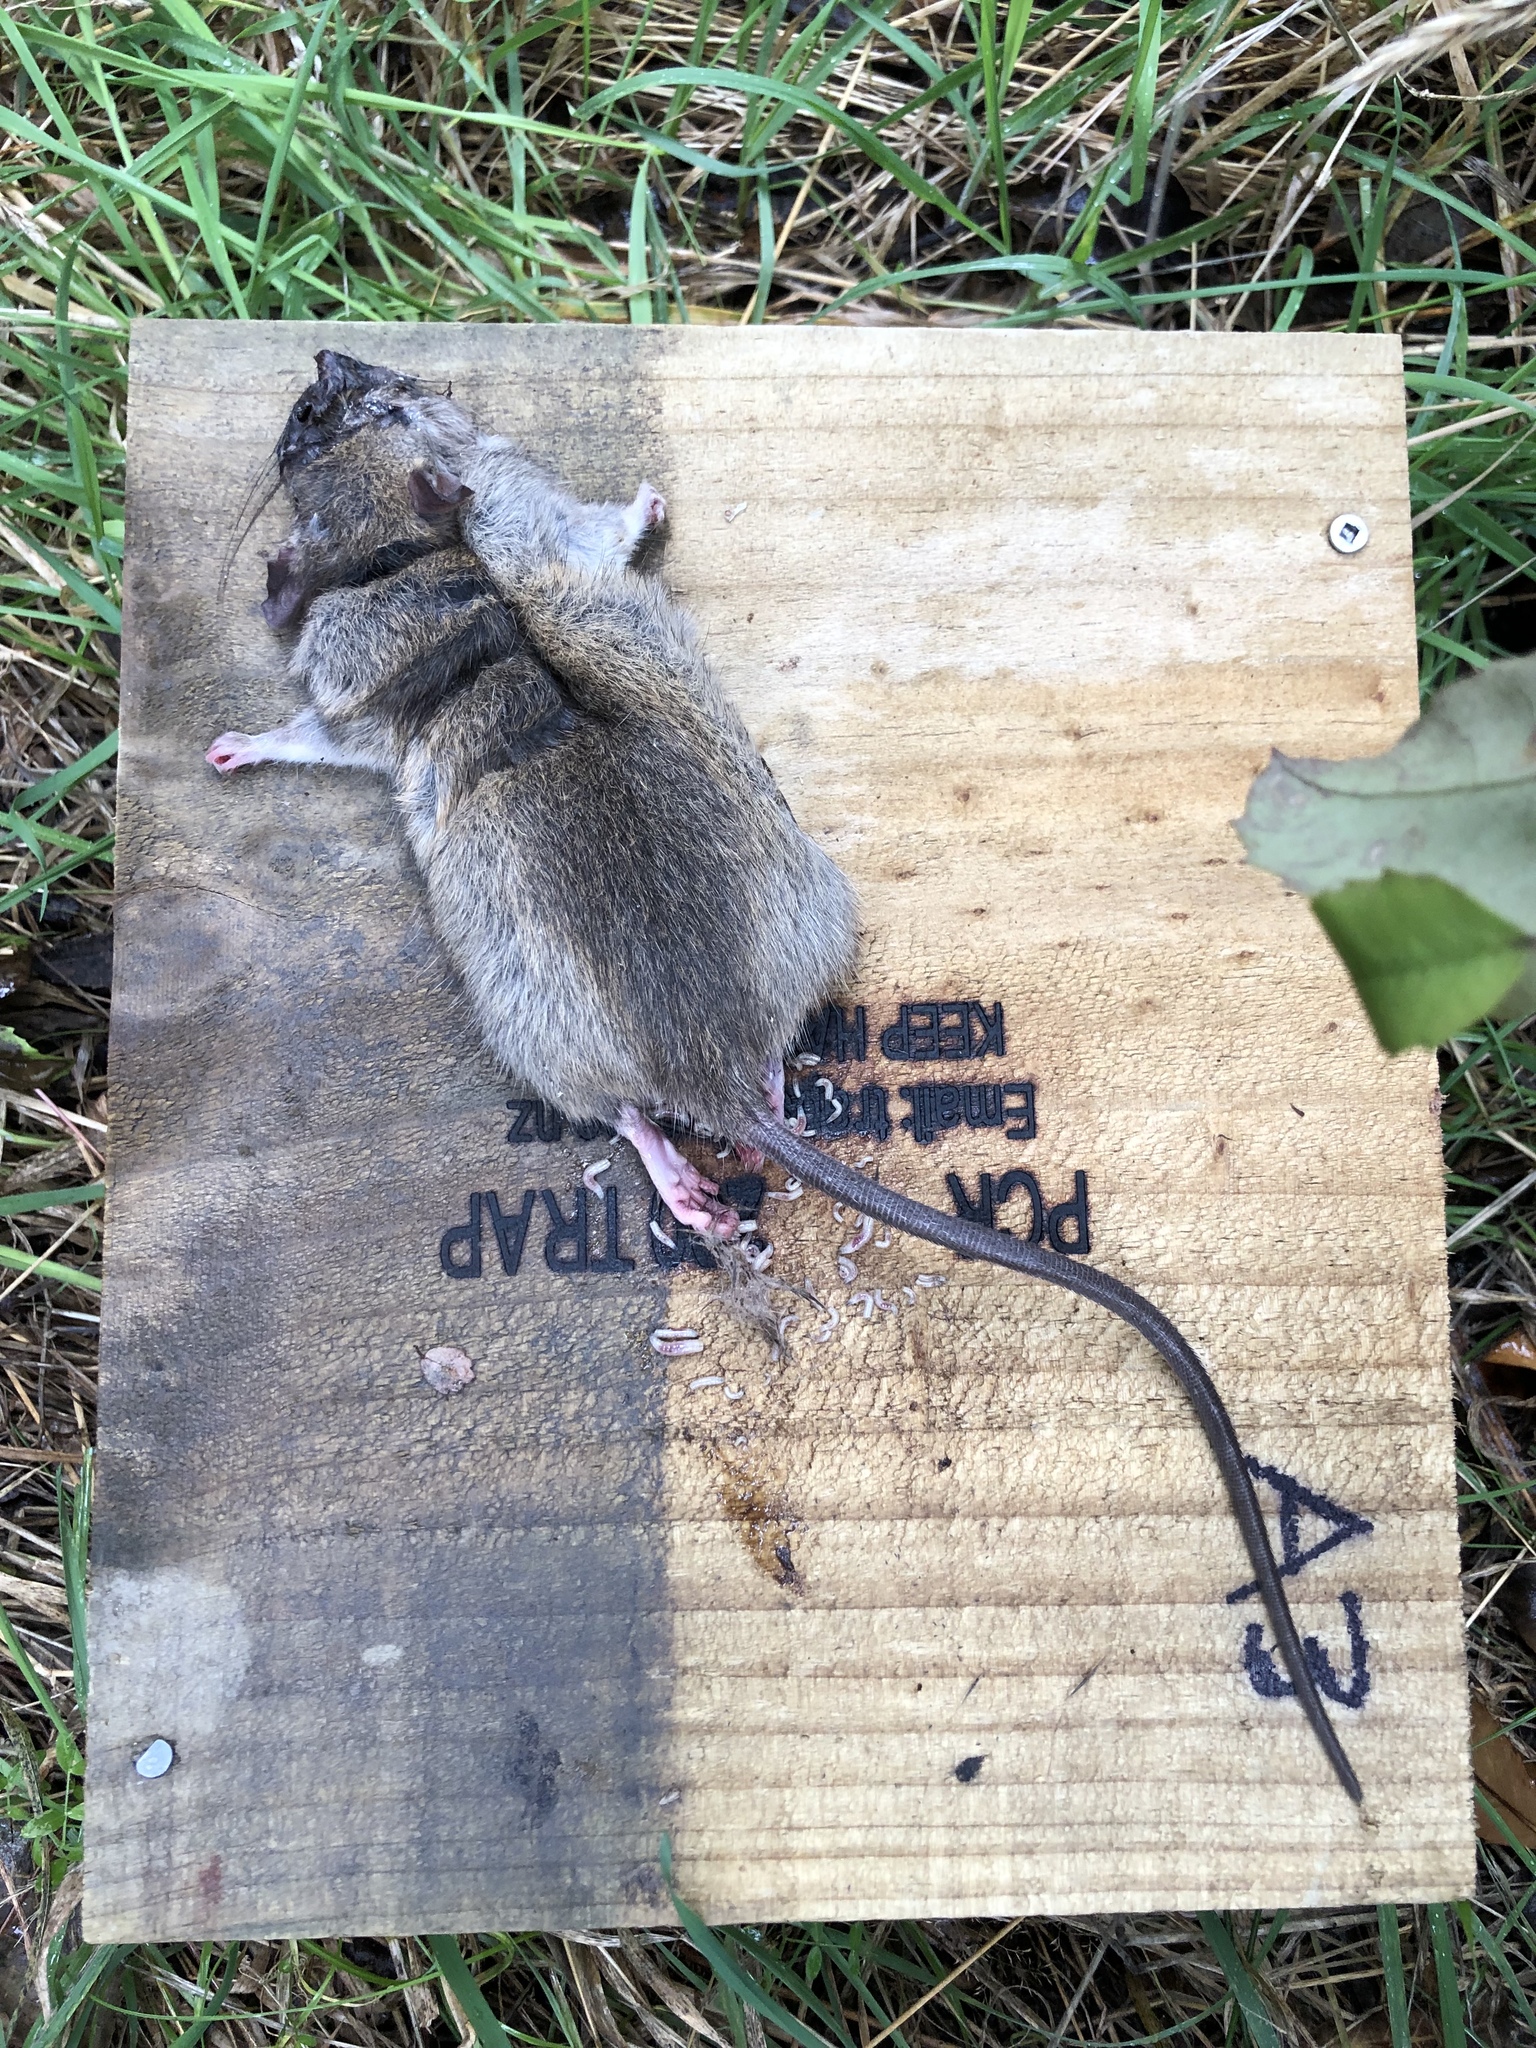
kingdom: Animalia
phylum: Chordata
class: Mammalia
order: Rodentia
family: Muridae
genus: Rattus
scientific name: Rattus rattus
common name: Black rat
